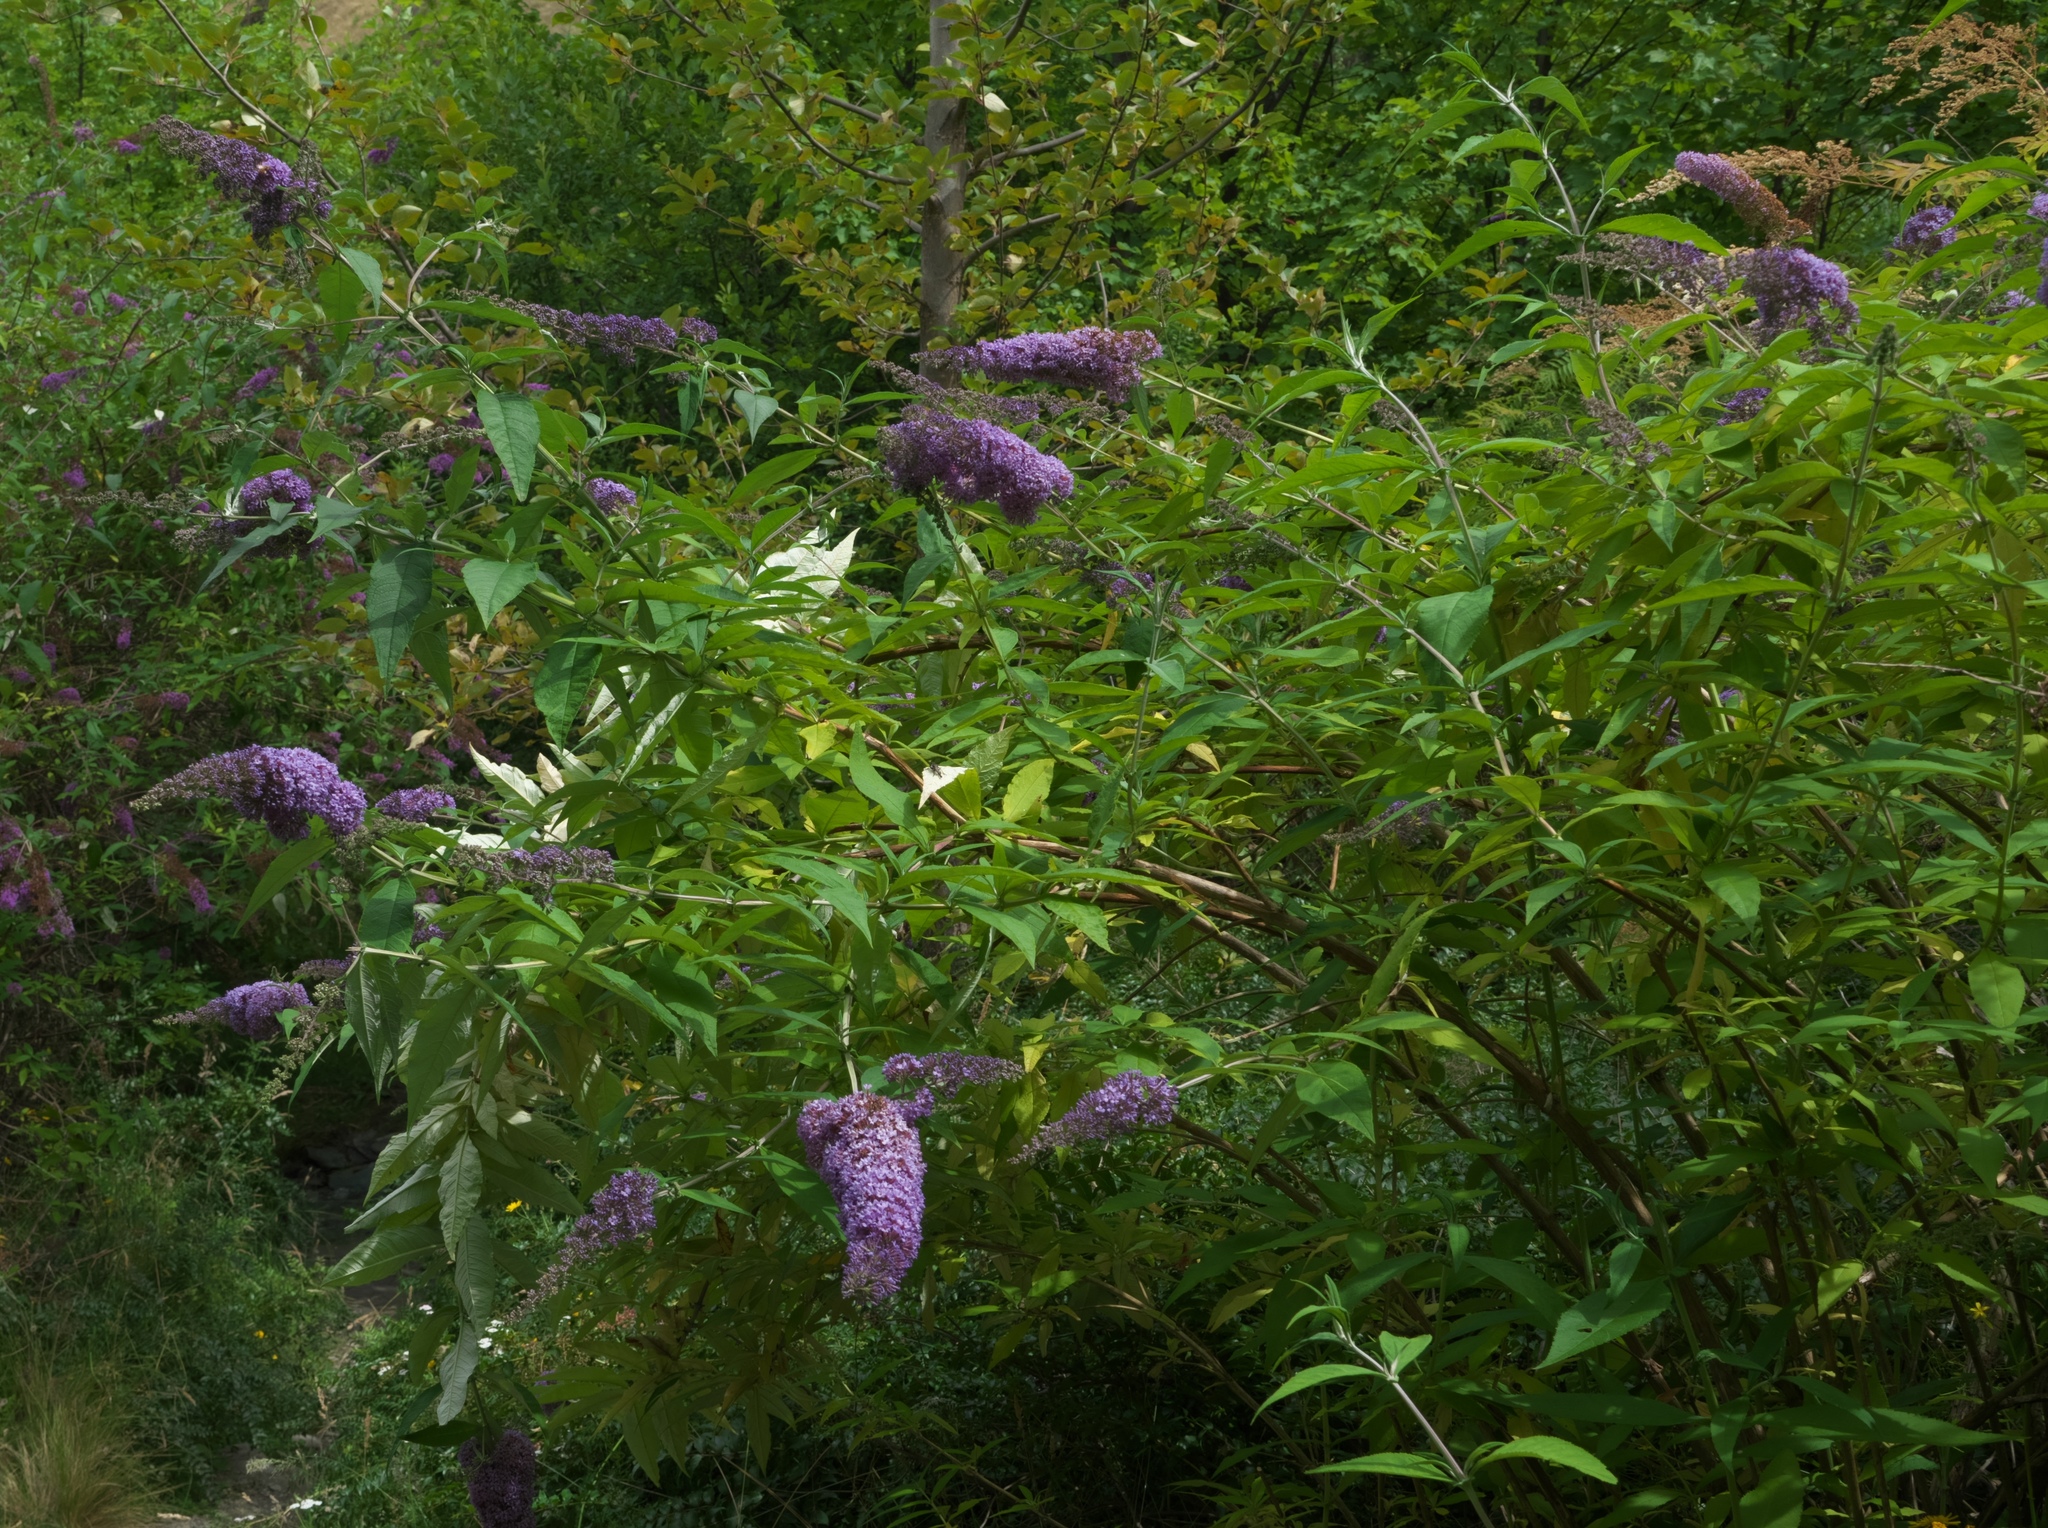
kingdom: Plantae
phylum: Tracheophyta
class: Magnoliopsida
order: Lamiales
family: Scrophulariaceae
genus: Buddleja
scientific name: Buddleja davidii
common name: Butterfly-bush
